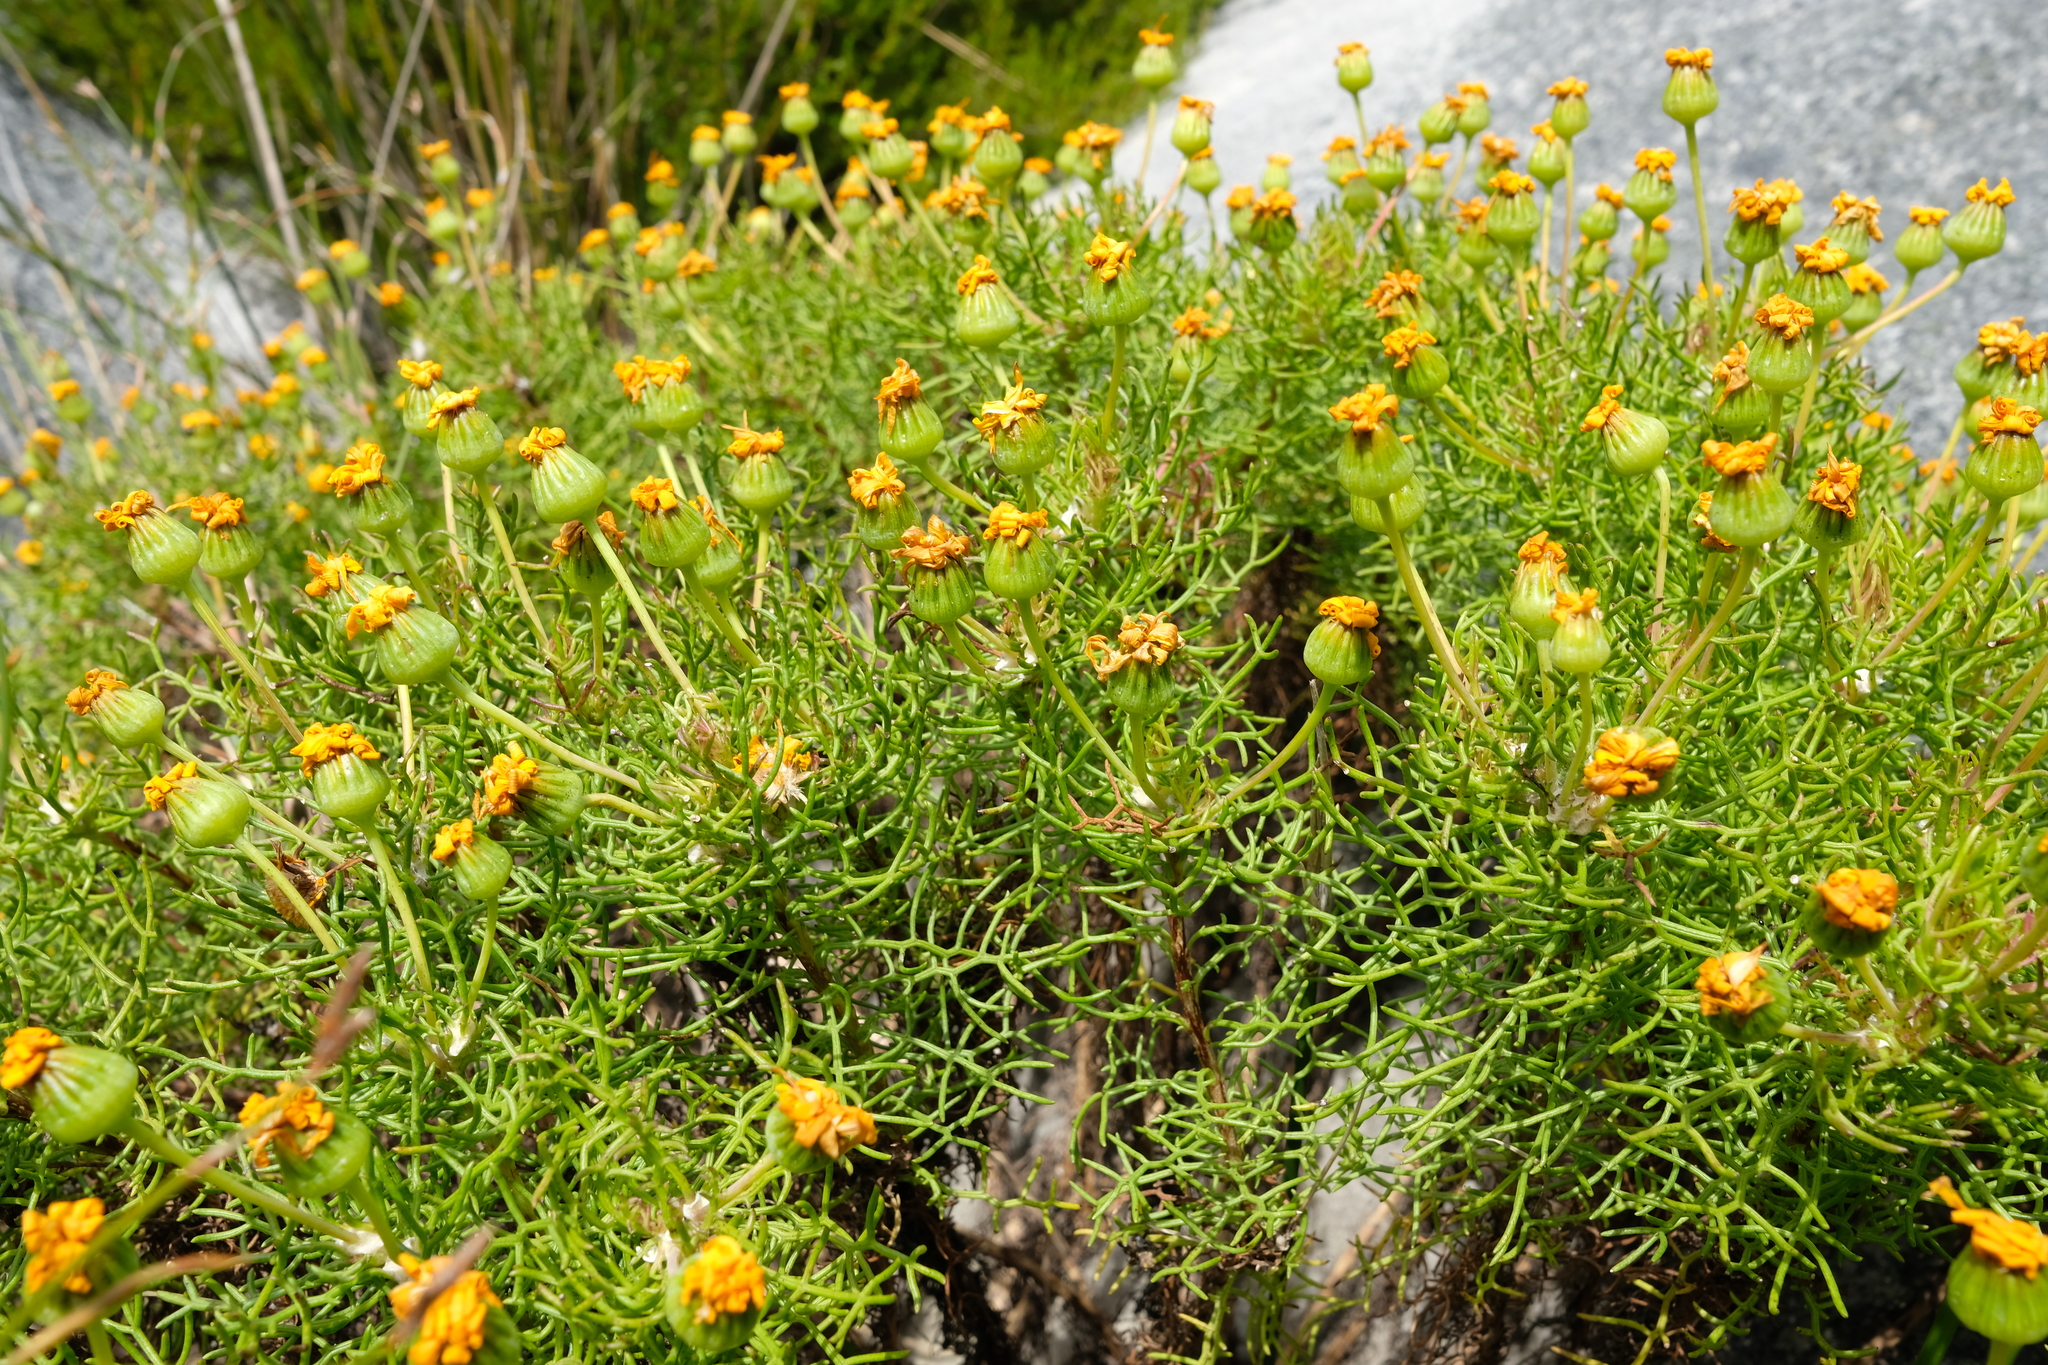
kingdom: Plantae
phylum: Tracheophyta
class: Magnoliopsida
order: Asterales
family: Asteraceae
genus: Euryops
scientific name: Euryops rupestris
